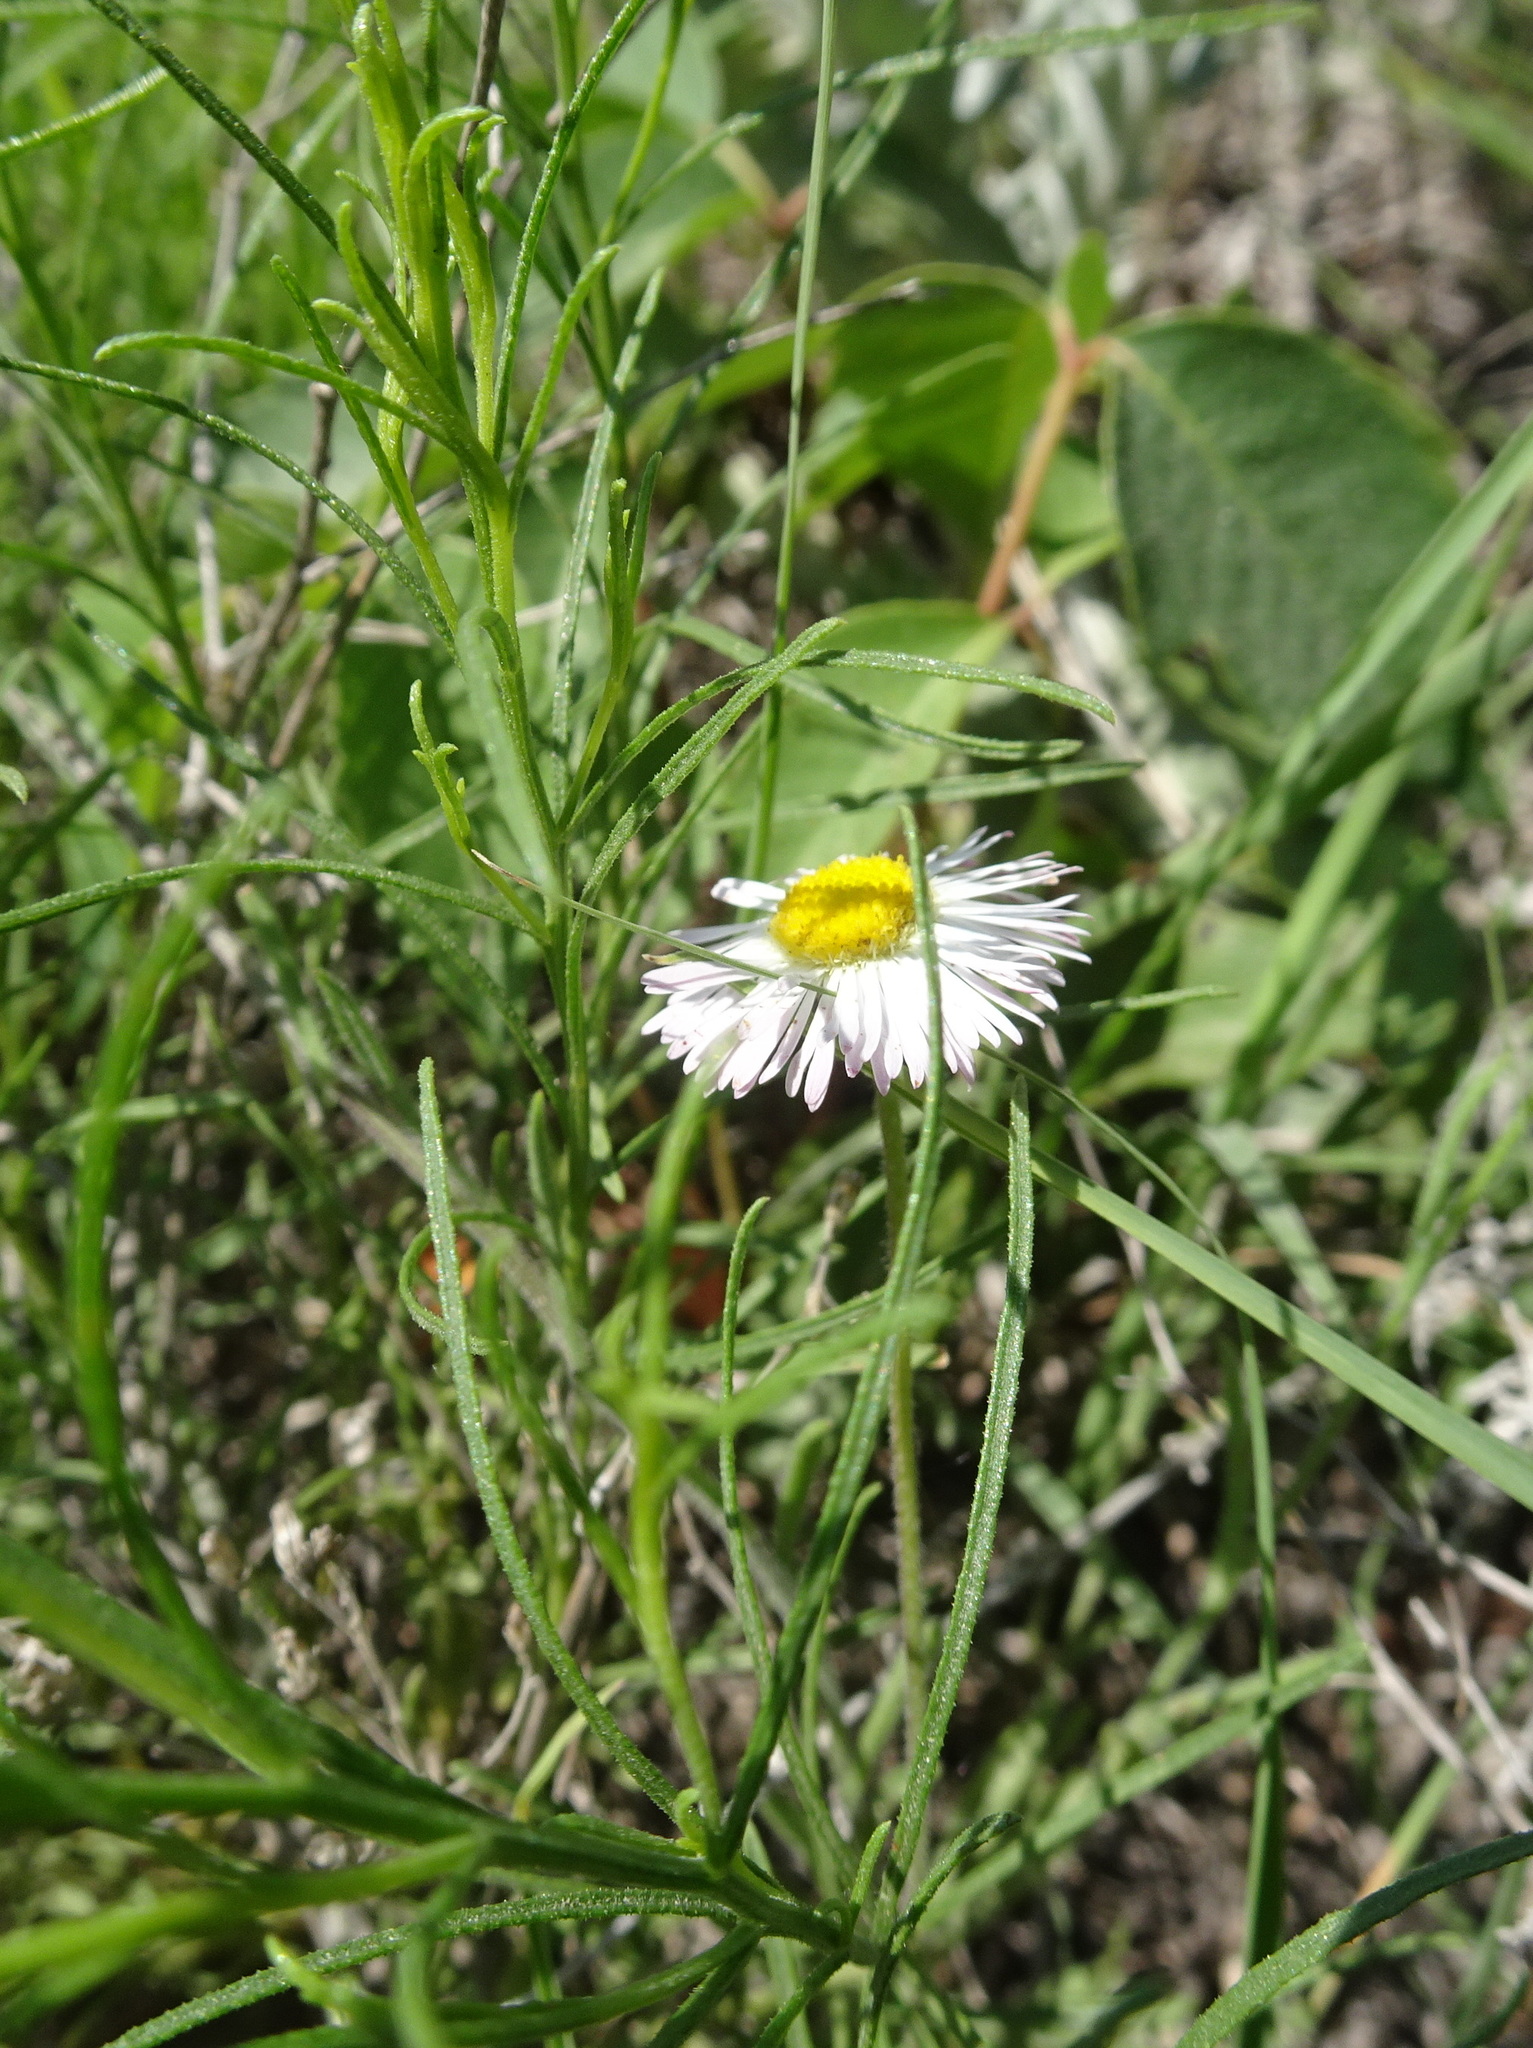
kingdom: Plantae
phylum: Tracheophyta
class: Magnoliopsida
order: Asterales
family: Asteraceae
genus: Erigeron
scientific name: Erigeron tracyi
